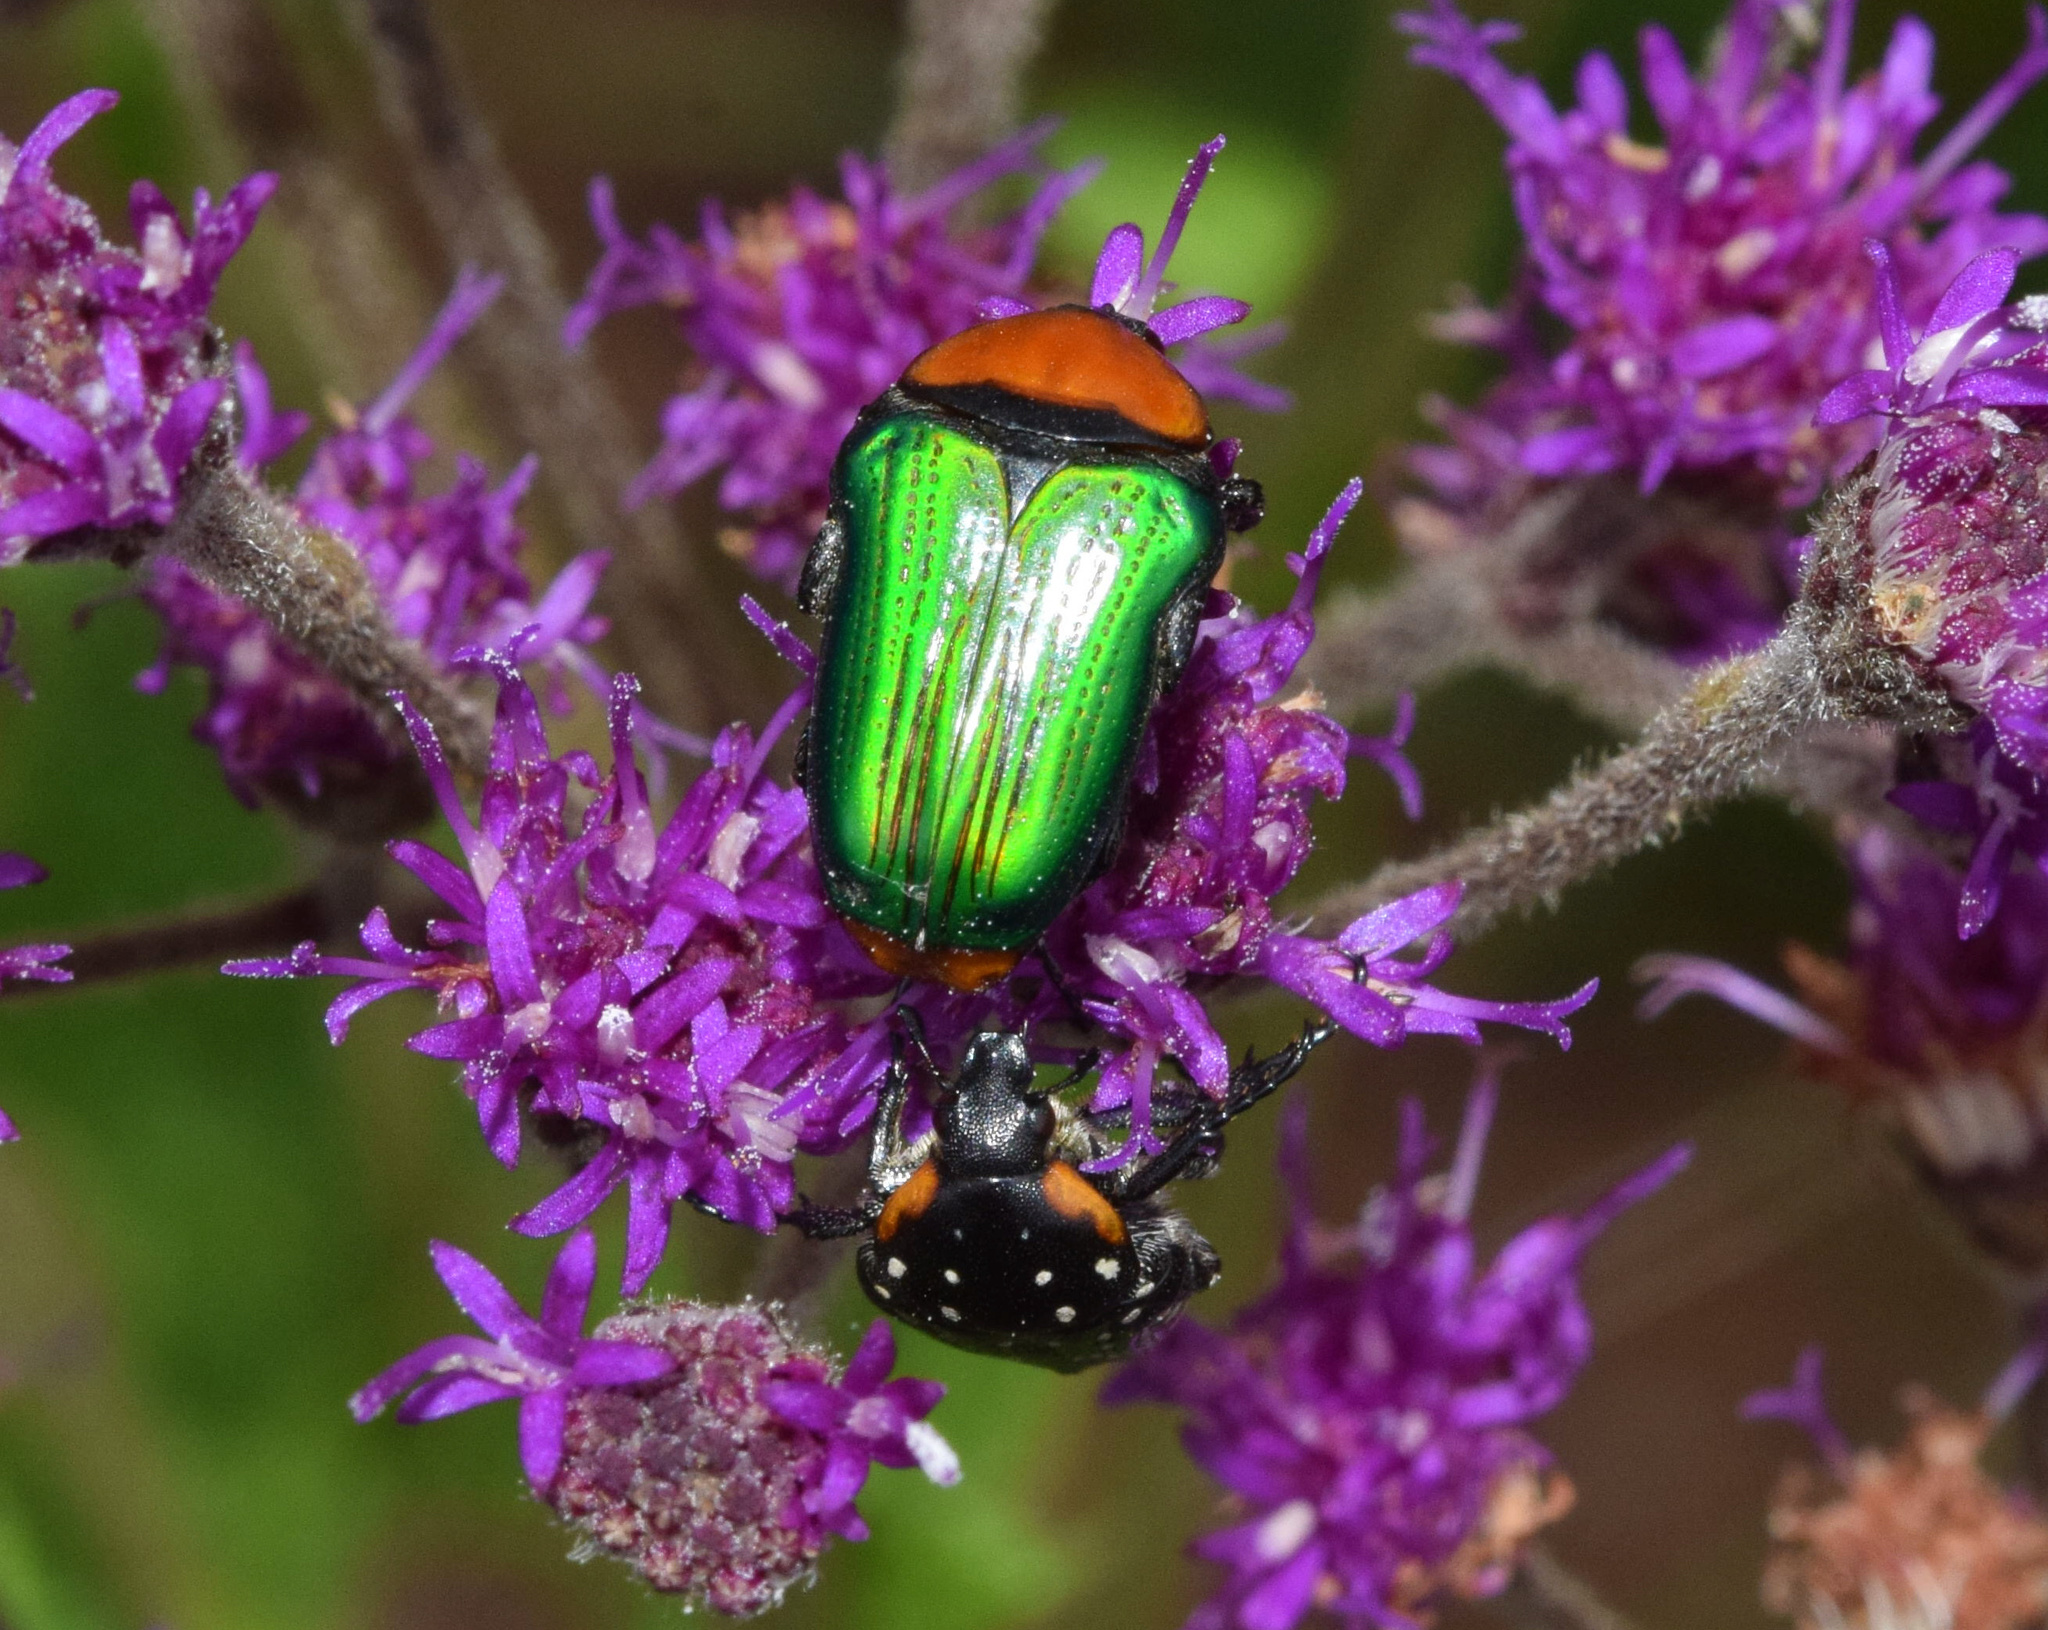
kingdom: Animalia
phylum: Arthropoda
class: Insecta
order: Coleoptera
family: Scarabaeidae
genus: Leucocelis
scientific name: Leucocelis haemorrhoidalis
